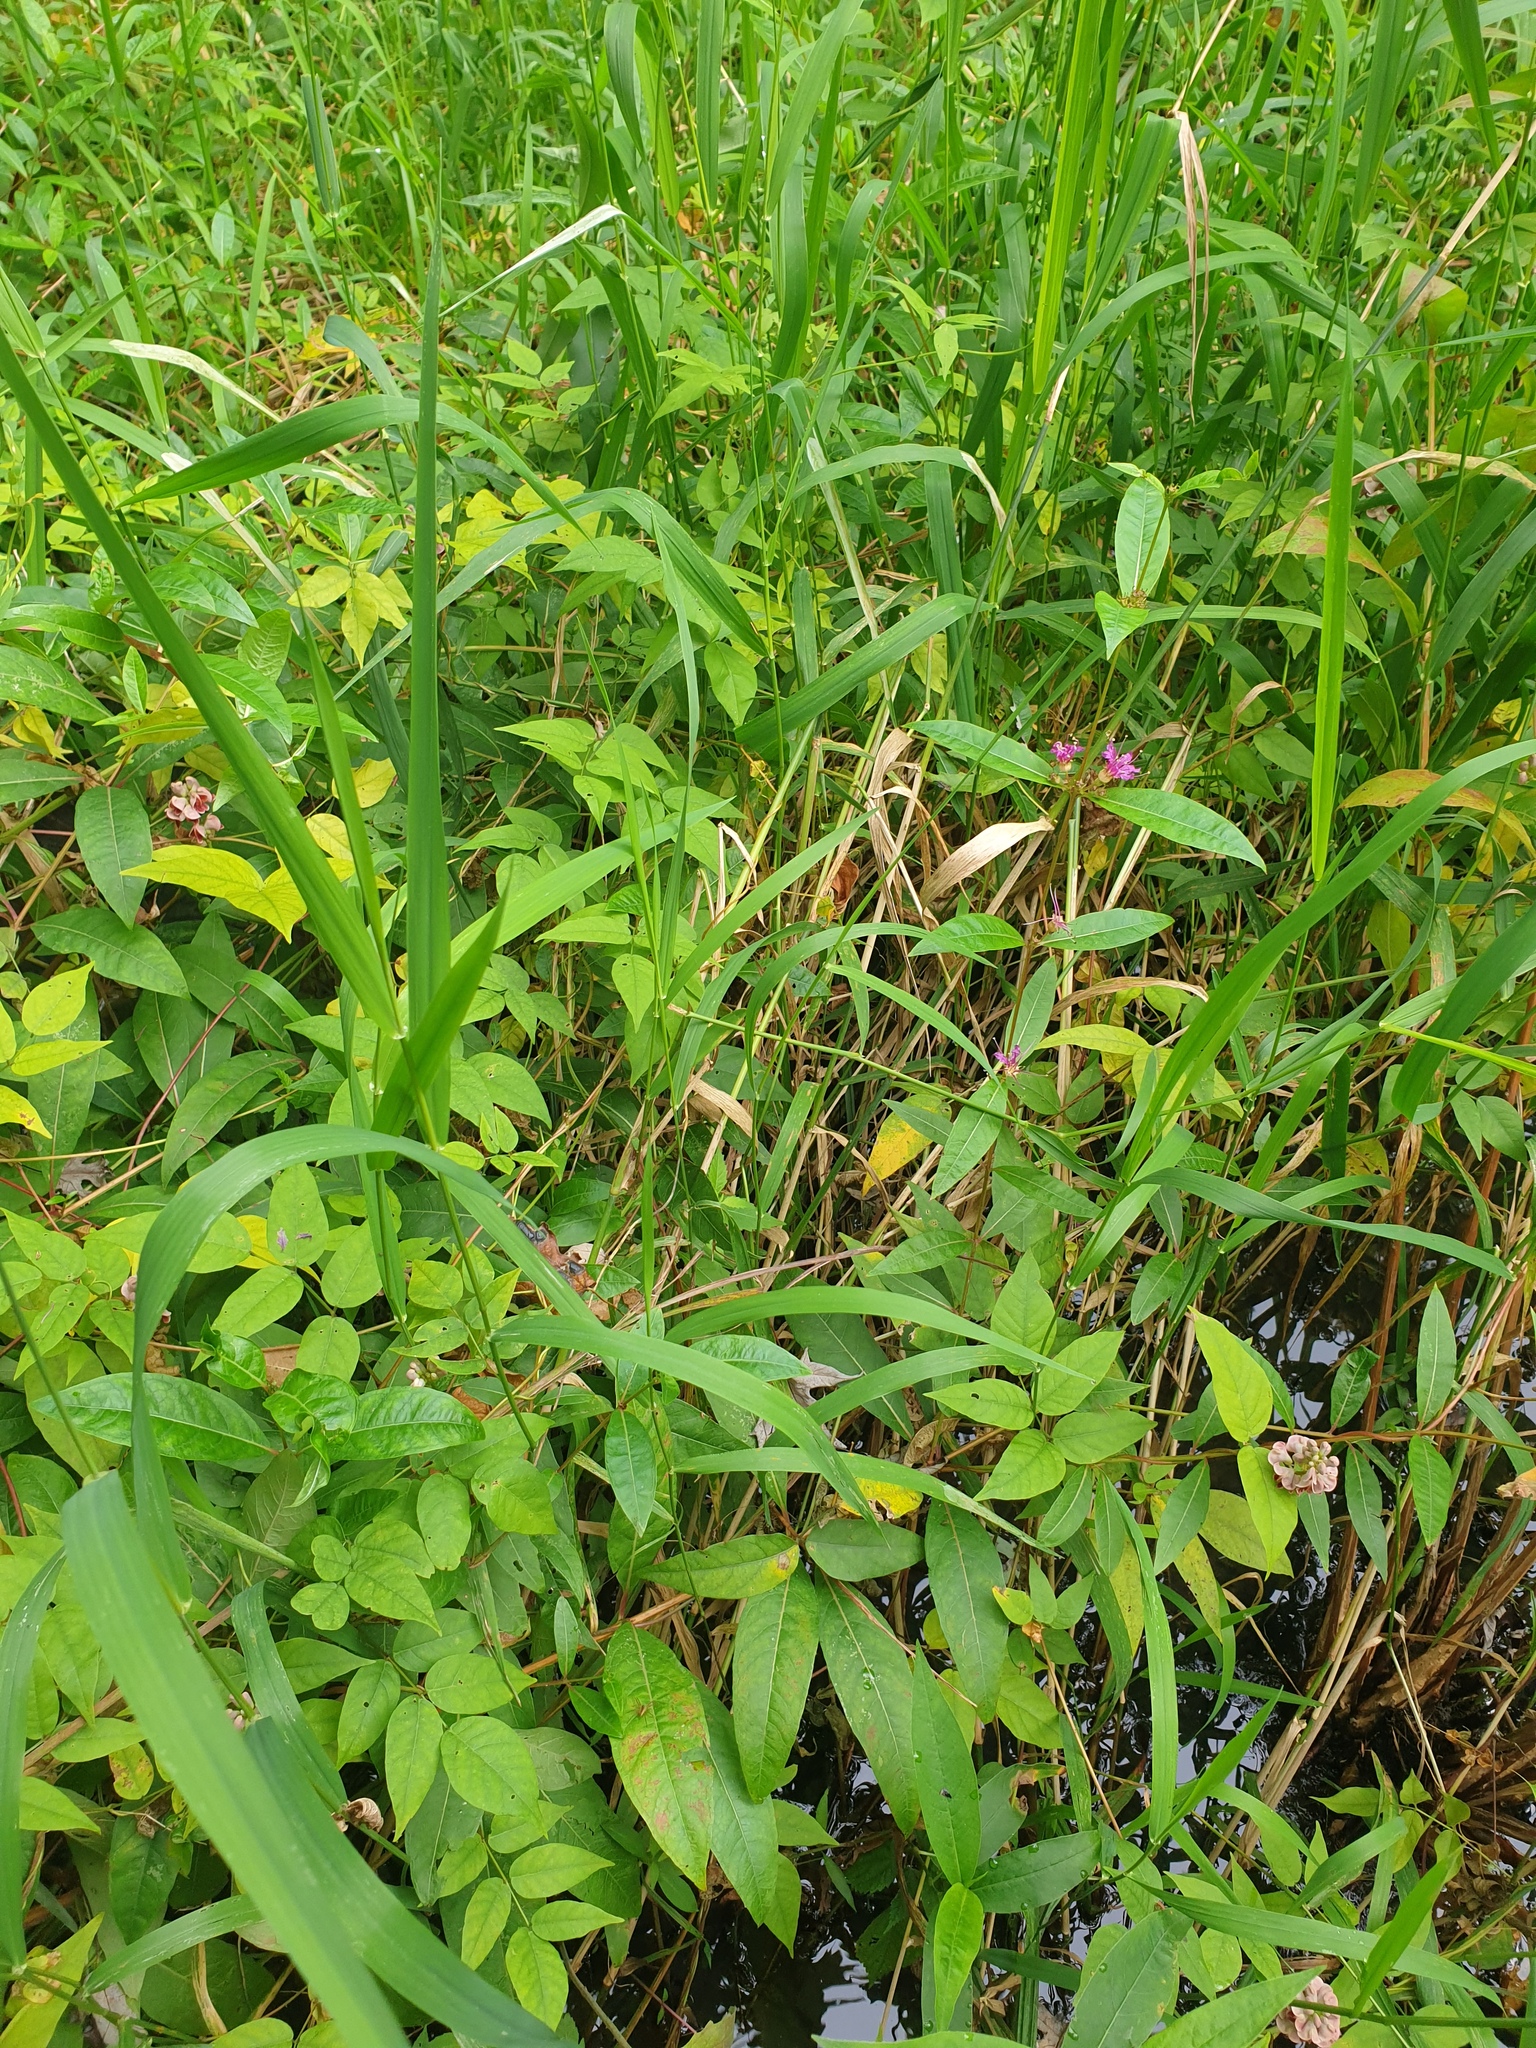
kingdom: Plantae
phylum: Tracheophyta
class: Magnoliopsida
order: Myrtales
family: Lythraceae
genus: Decodon
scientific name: Decodon verticillatus
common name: Hairy swamp loosestrife
